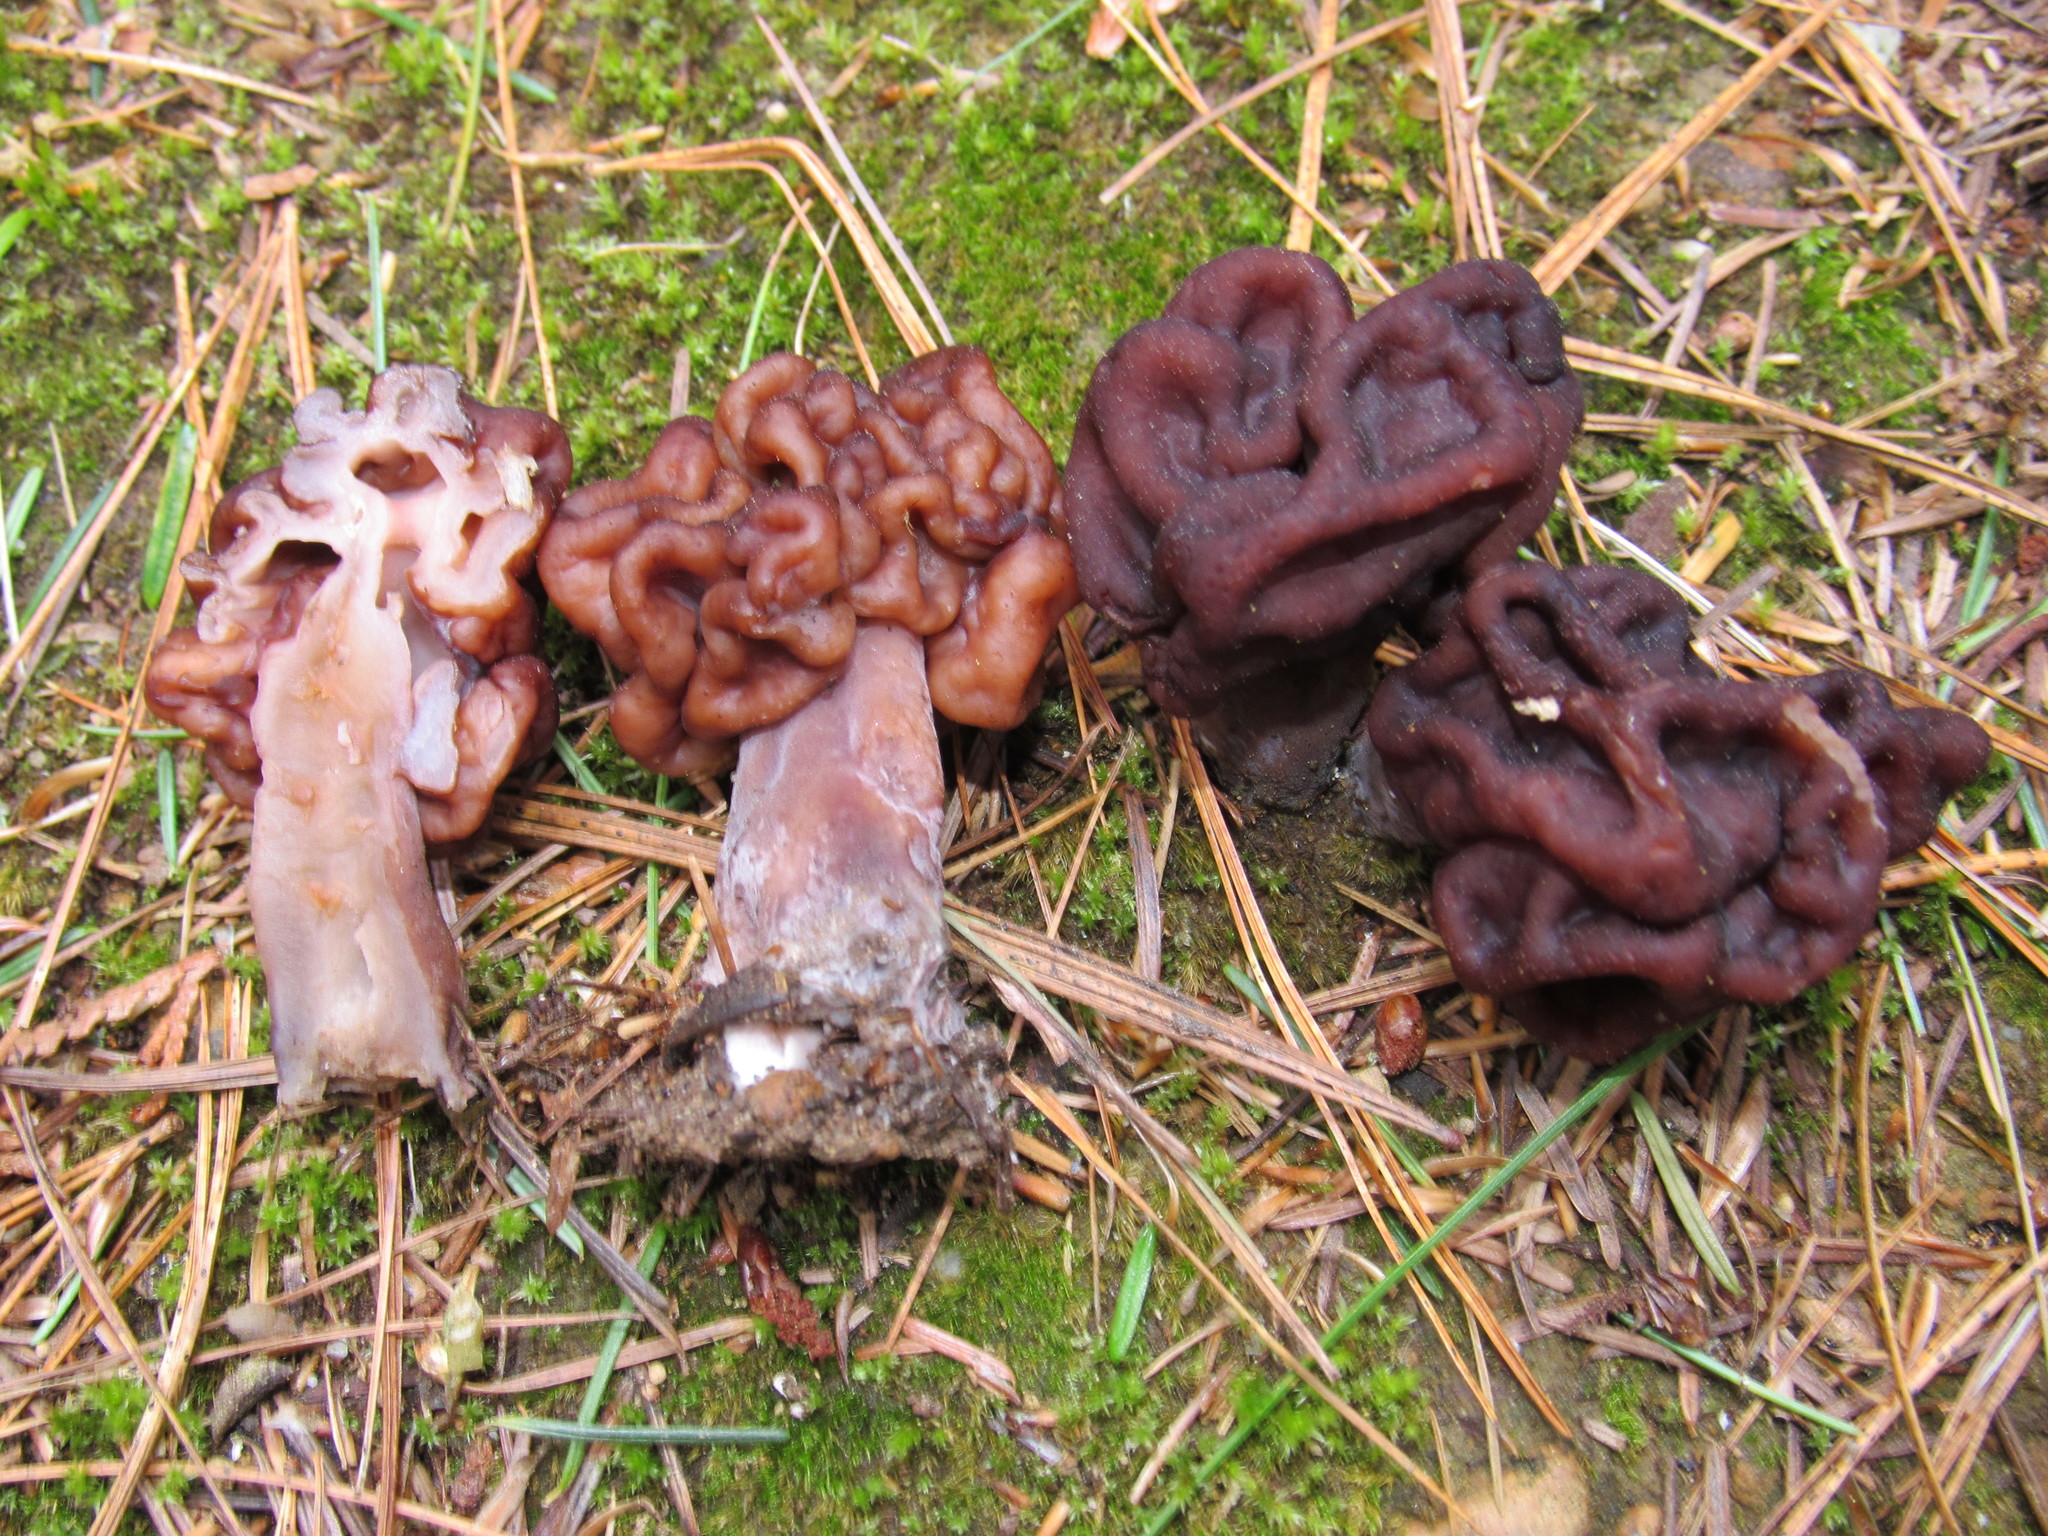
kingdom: Fungi
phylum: Ascomycota
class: Pezizomycetes
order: Pezizales
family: Discinaceae
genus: Gyromitra
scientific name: Gyromitra esculenta
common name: False morel
